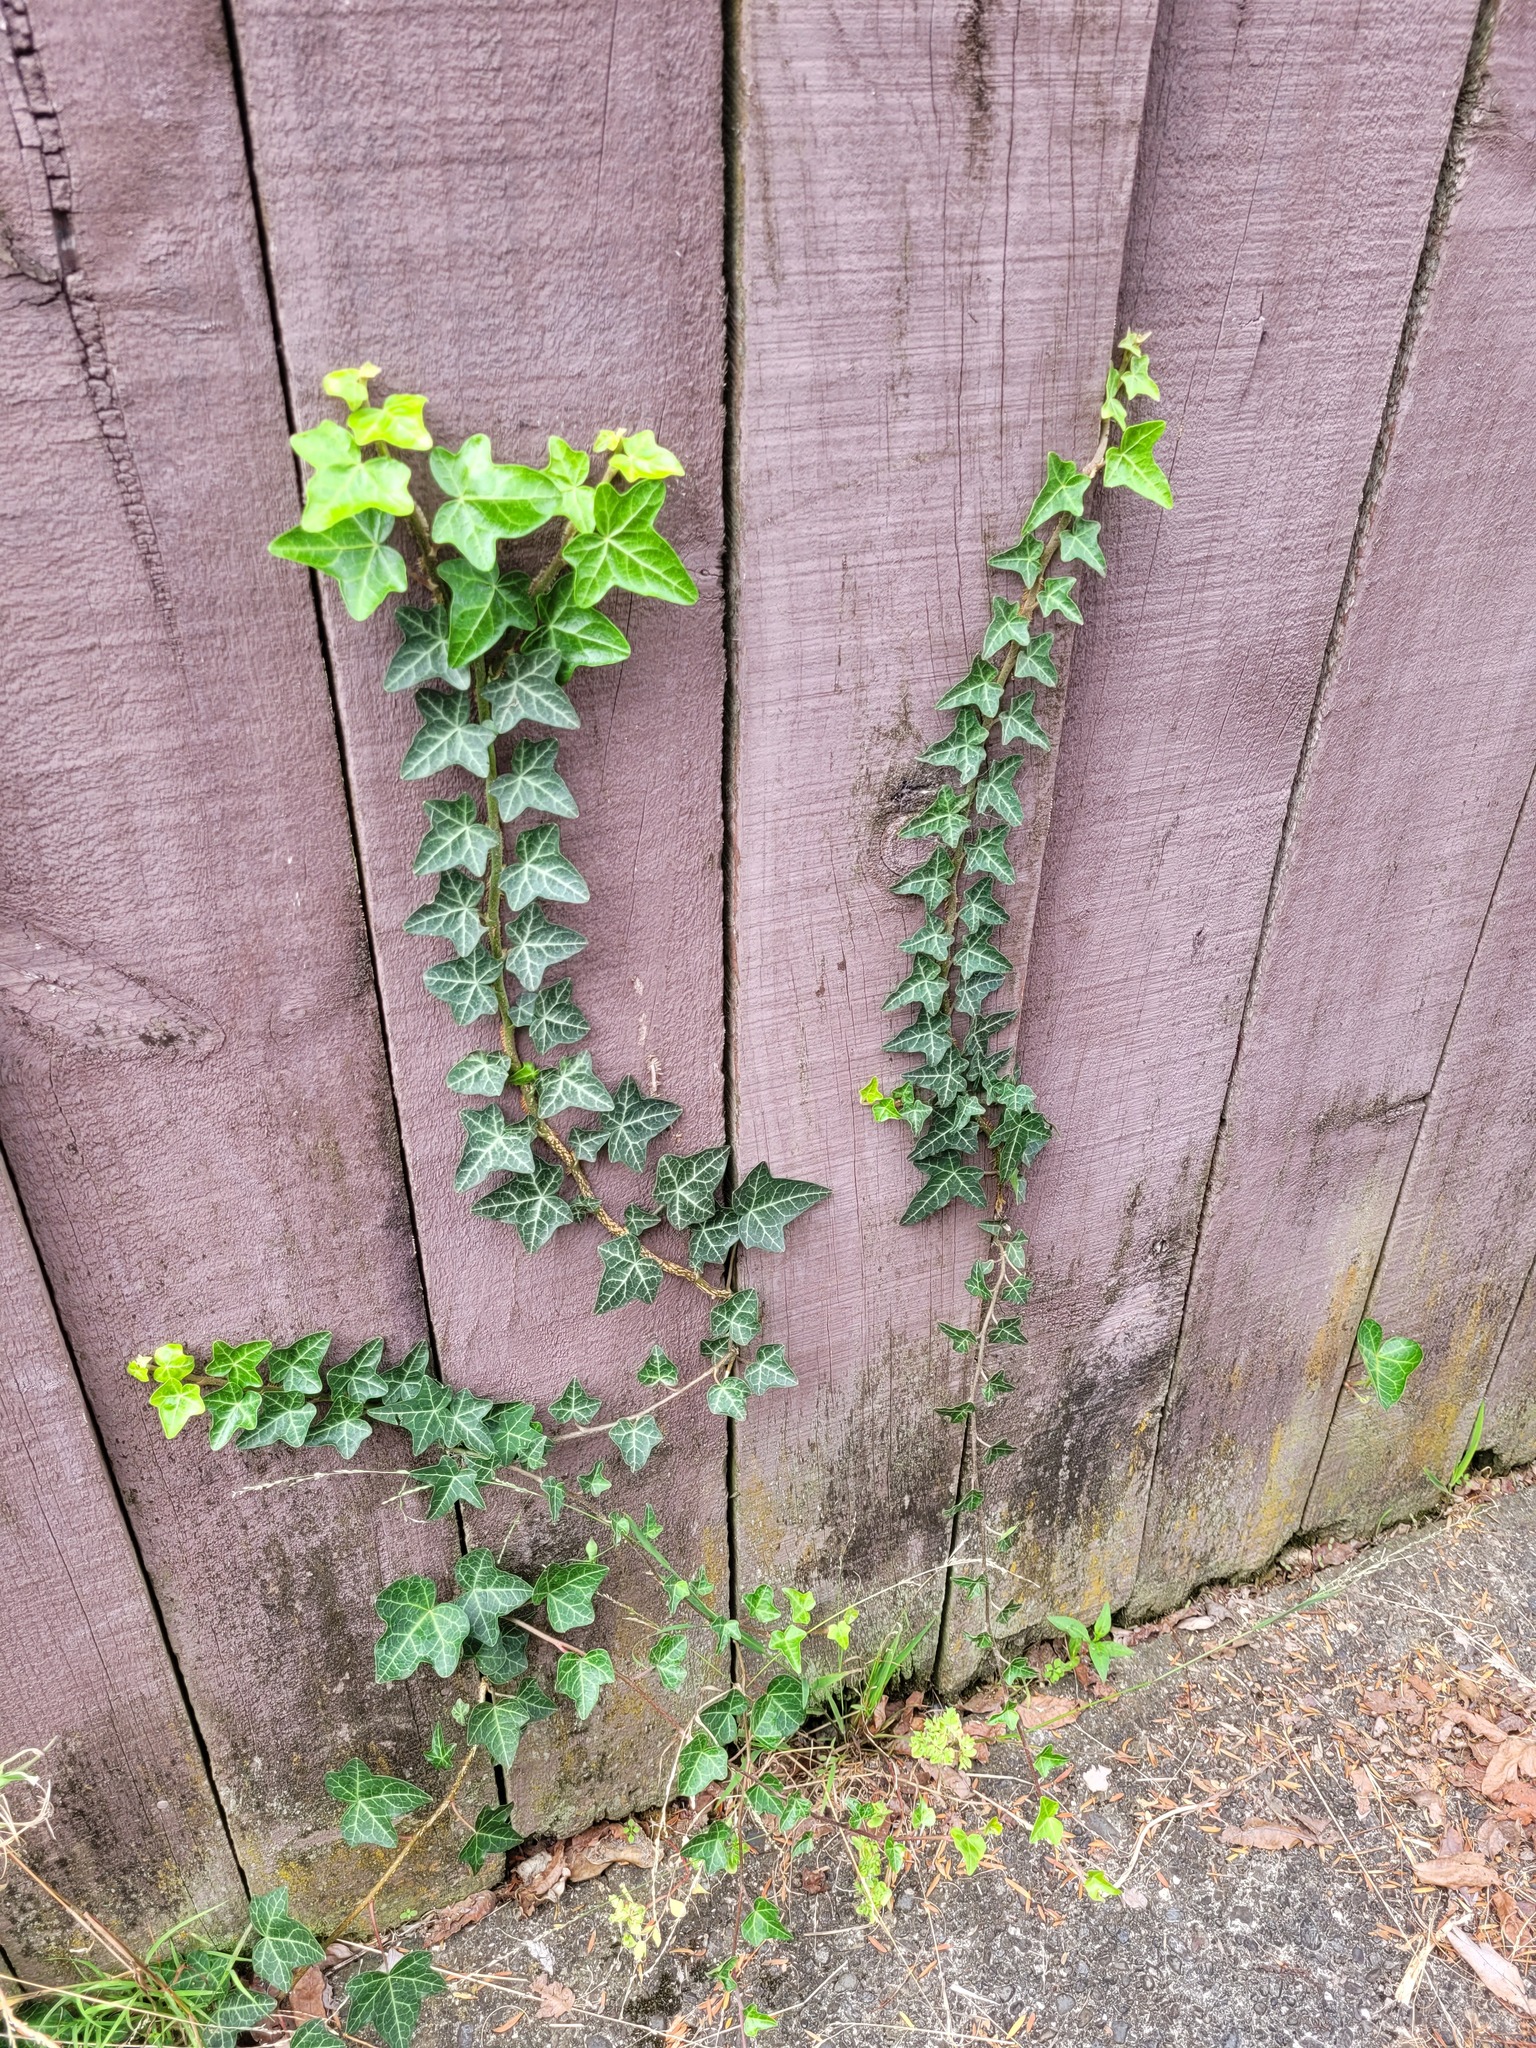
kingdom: Plantae
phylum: Tracheophyta
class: Magnoliopsida
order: Apiales
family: Araliaceae
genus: Hedera
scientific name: Hedera helix
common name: Ivy
